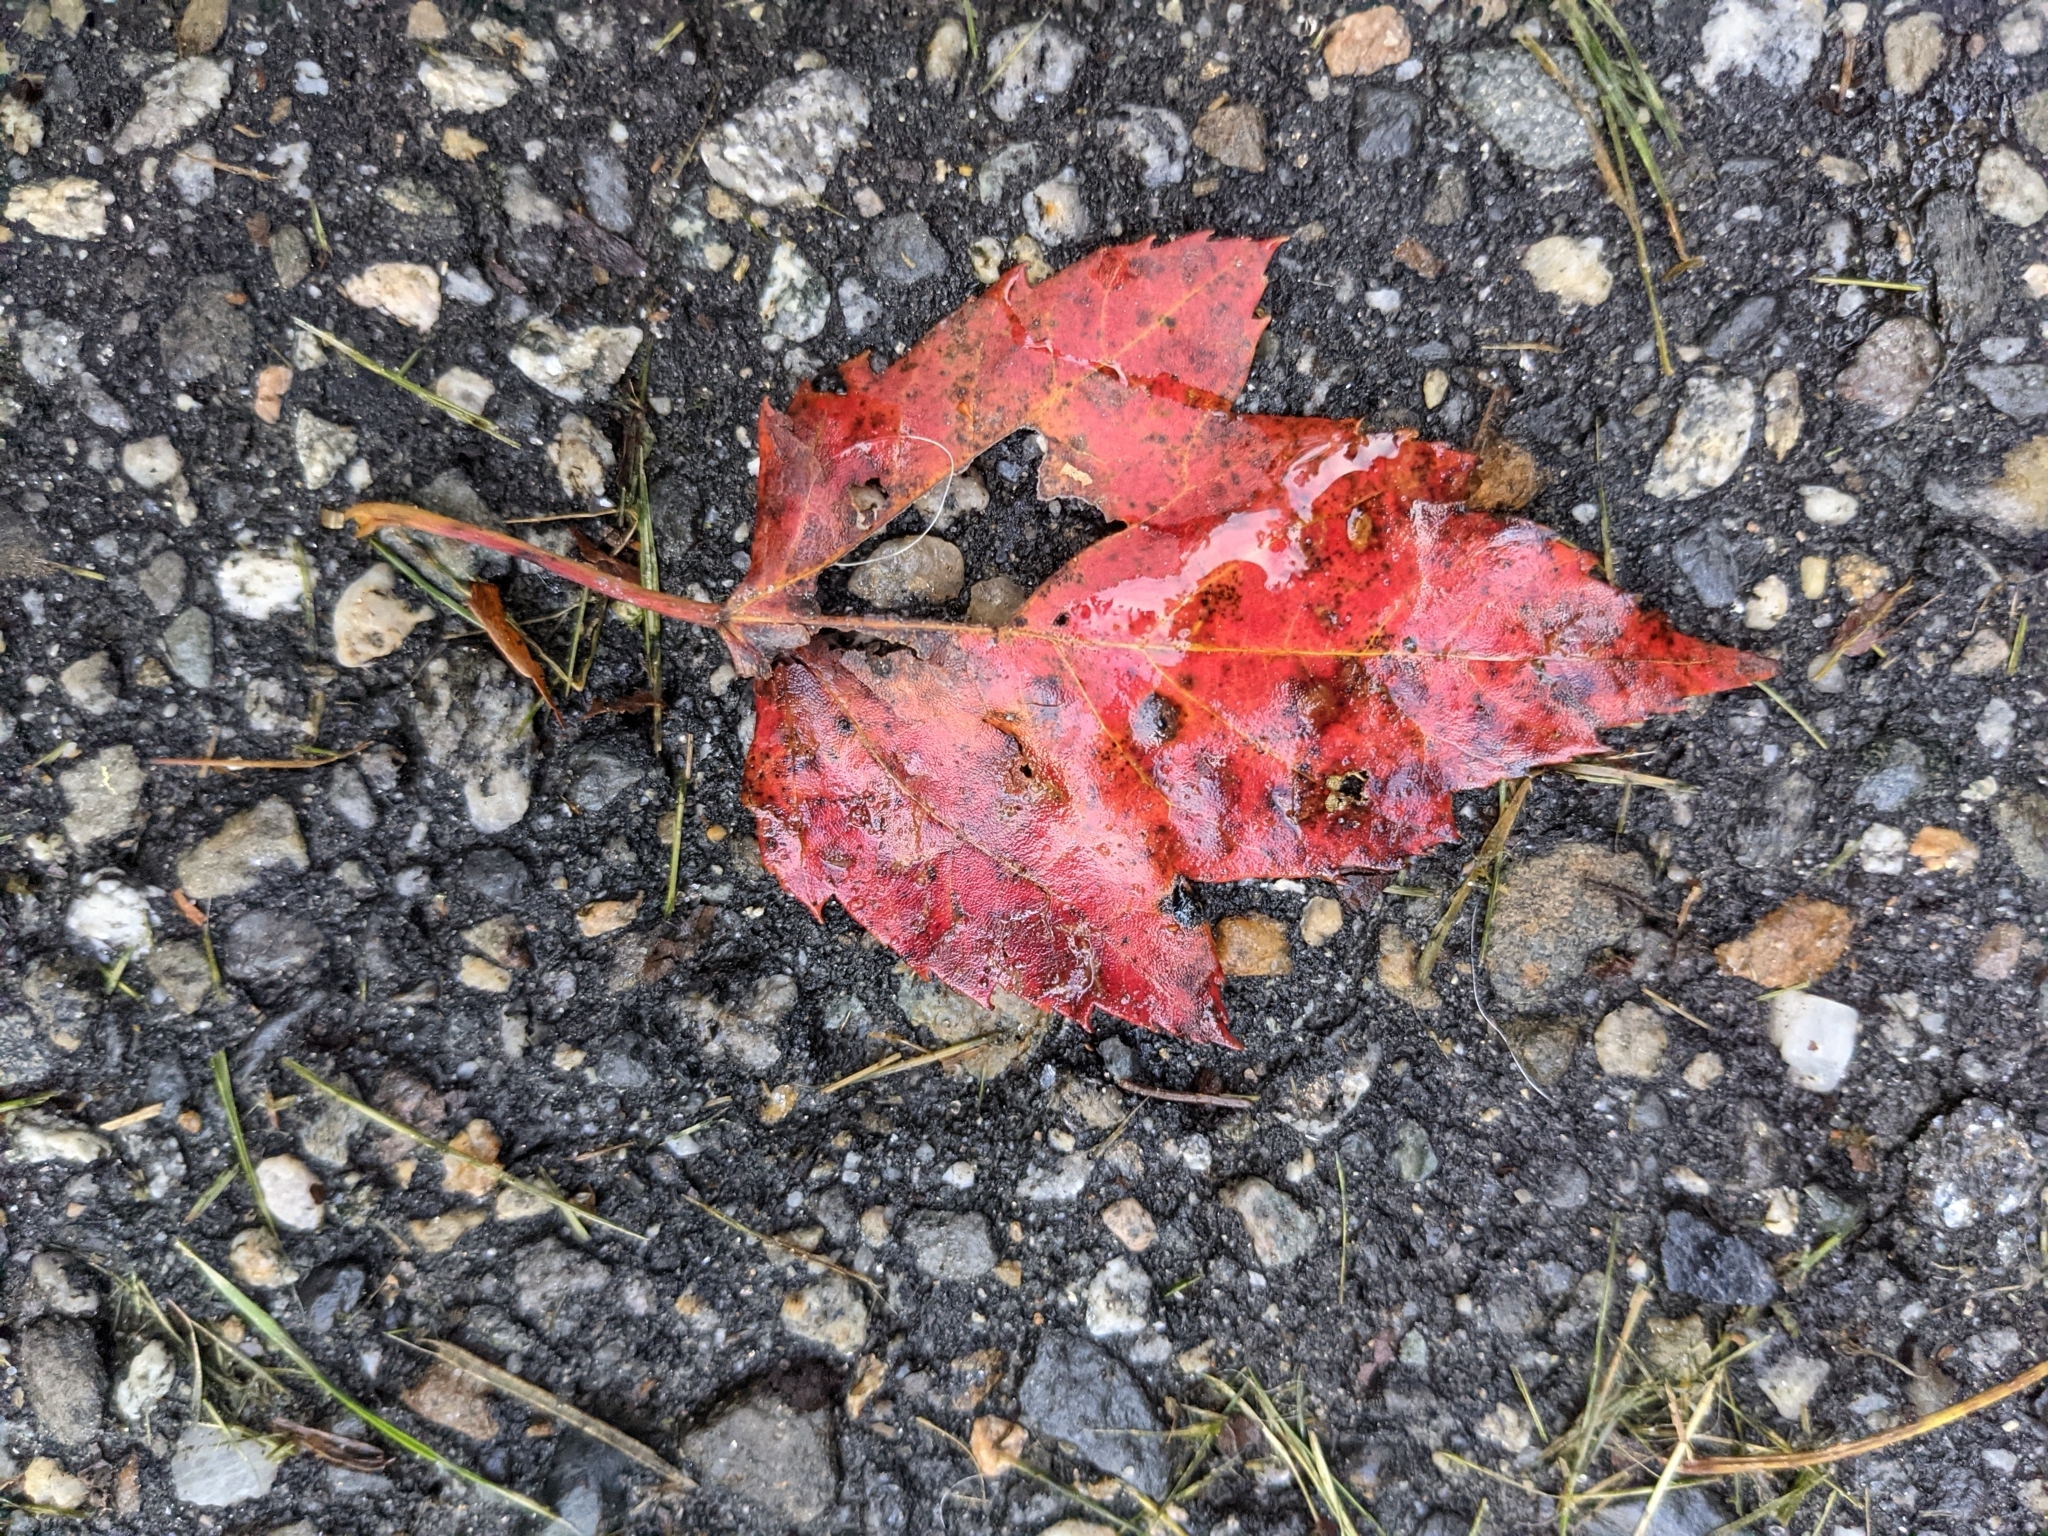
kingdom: Plantae
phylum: Tracheophyta
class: Magnoliopsida
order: Sapindales
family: Sapindaceae
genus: Acer
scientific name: Acer rubrum
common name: Red maple
